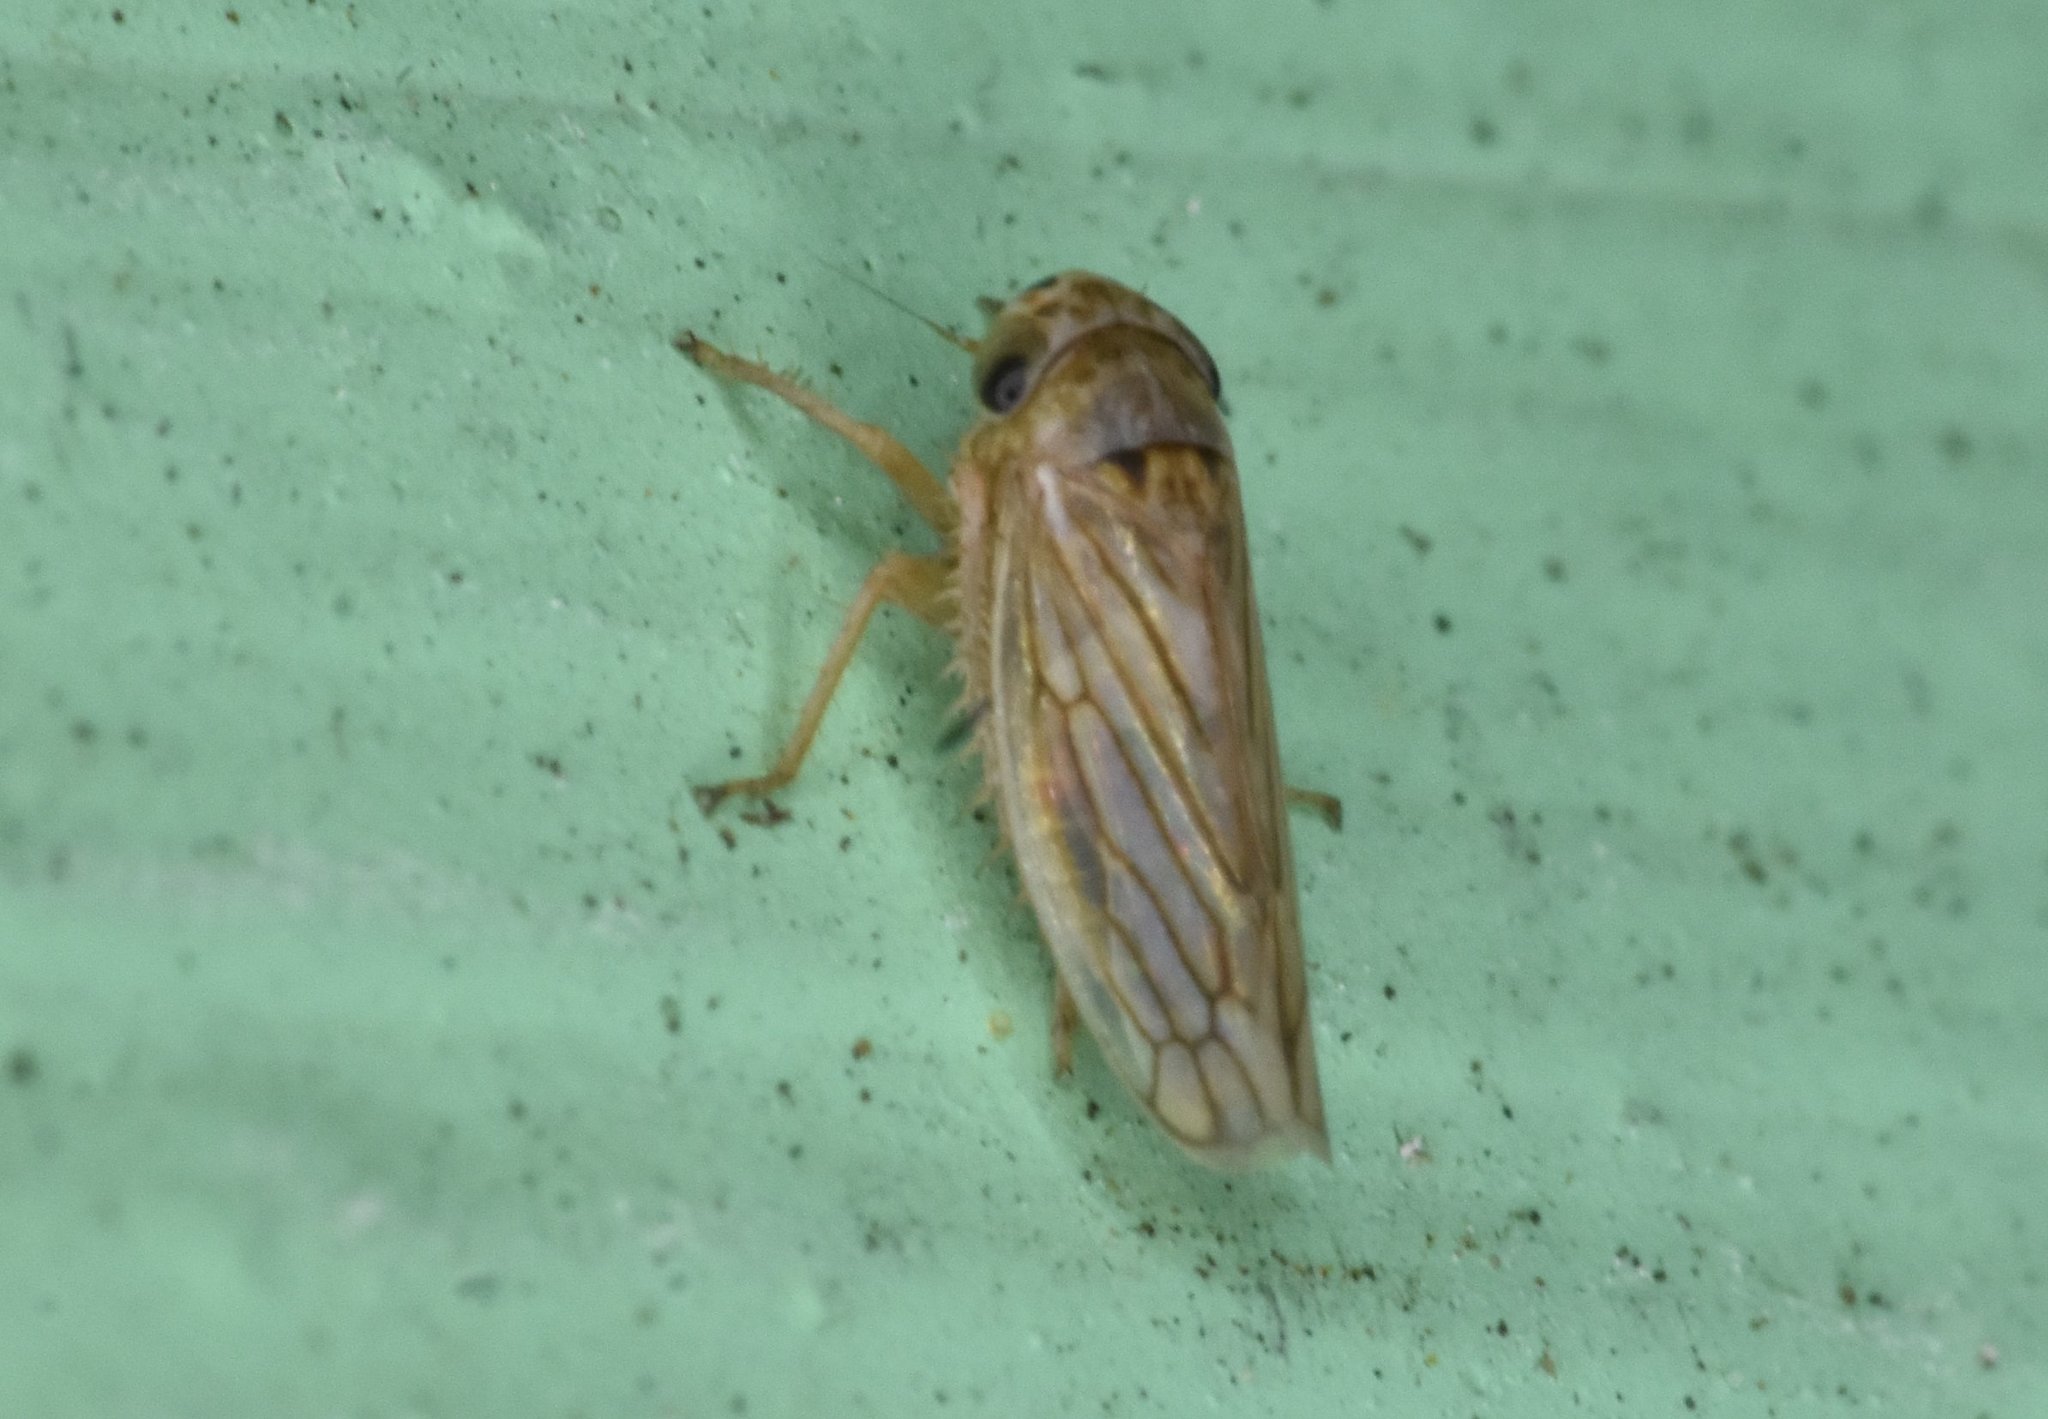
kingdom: Animalia
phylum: Arthropoda
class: Insecta
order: Hemiptera
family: Cicadellidae
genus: Exitianus
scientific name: Exitianus exitiosus
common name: Gray lawn leafhopper
